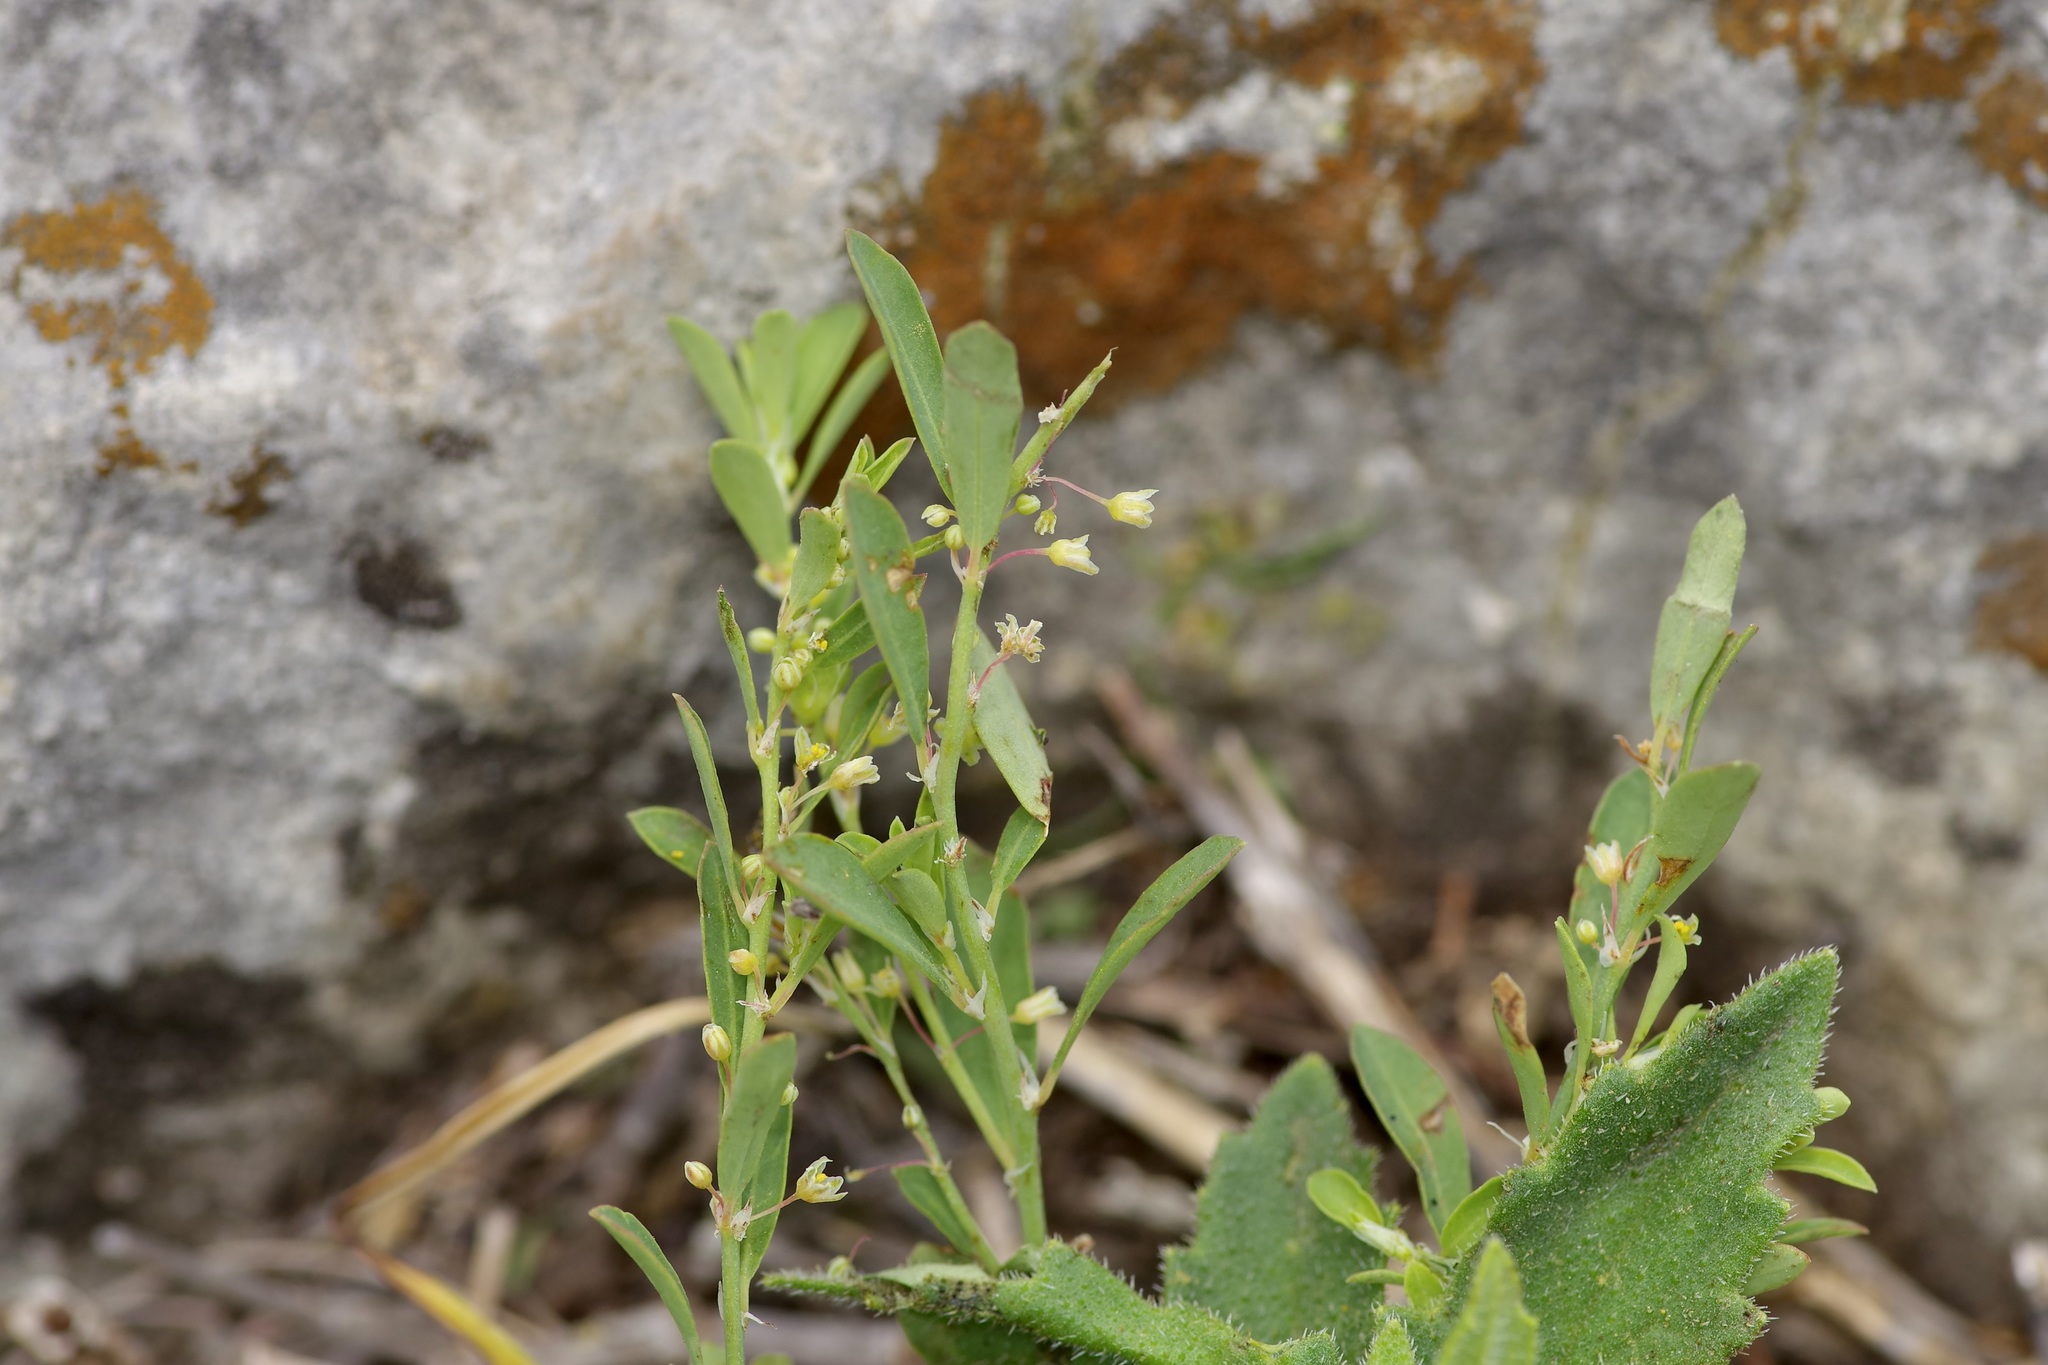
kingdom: Plantae
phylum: Tracheophyta
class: Magnoliopsida
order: Malpighiales
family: Phyllanthaceae
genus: Phyllanthus
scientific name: Phyllanthus polygonoides
